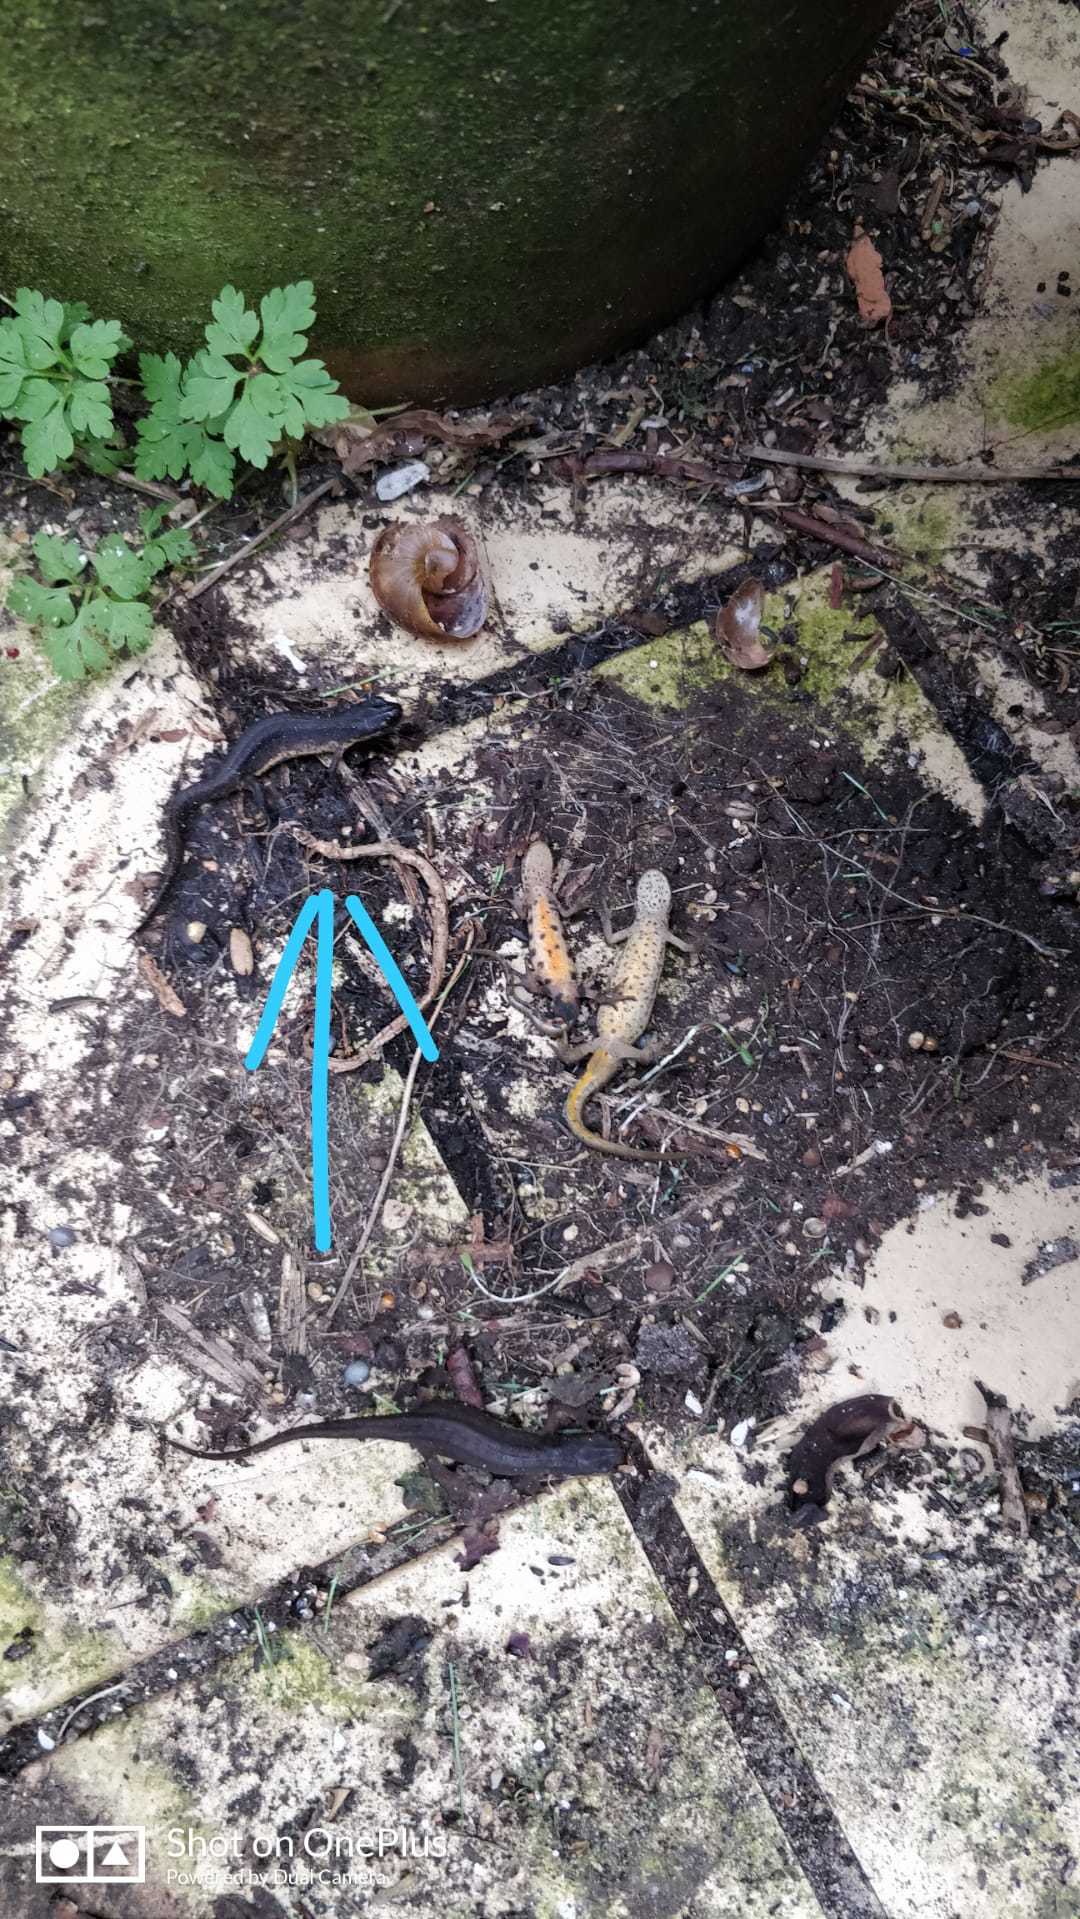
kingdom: Animalia
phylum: Chordata
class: Amphibia
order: Caudata
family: Salamandridae
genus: Lissotriton
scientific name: Lissotriton vulgaris
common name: Smooth newt
